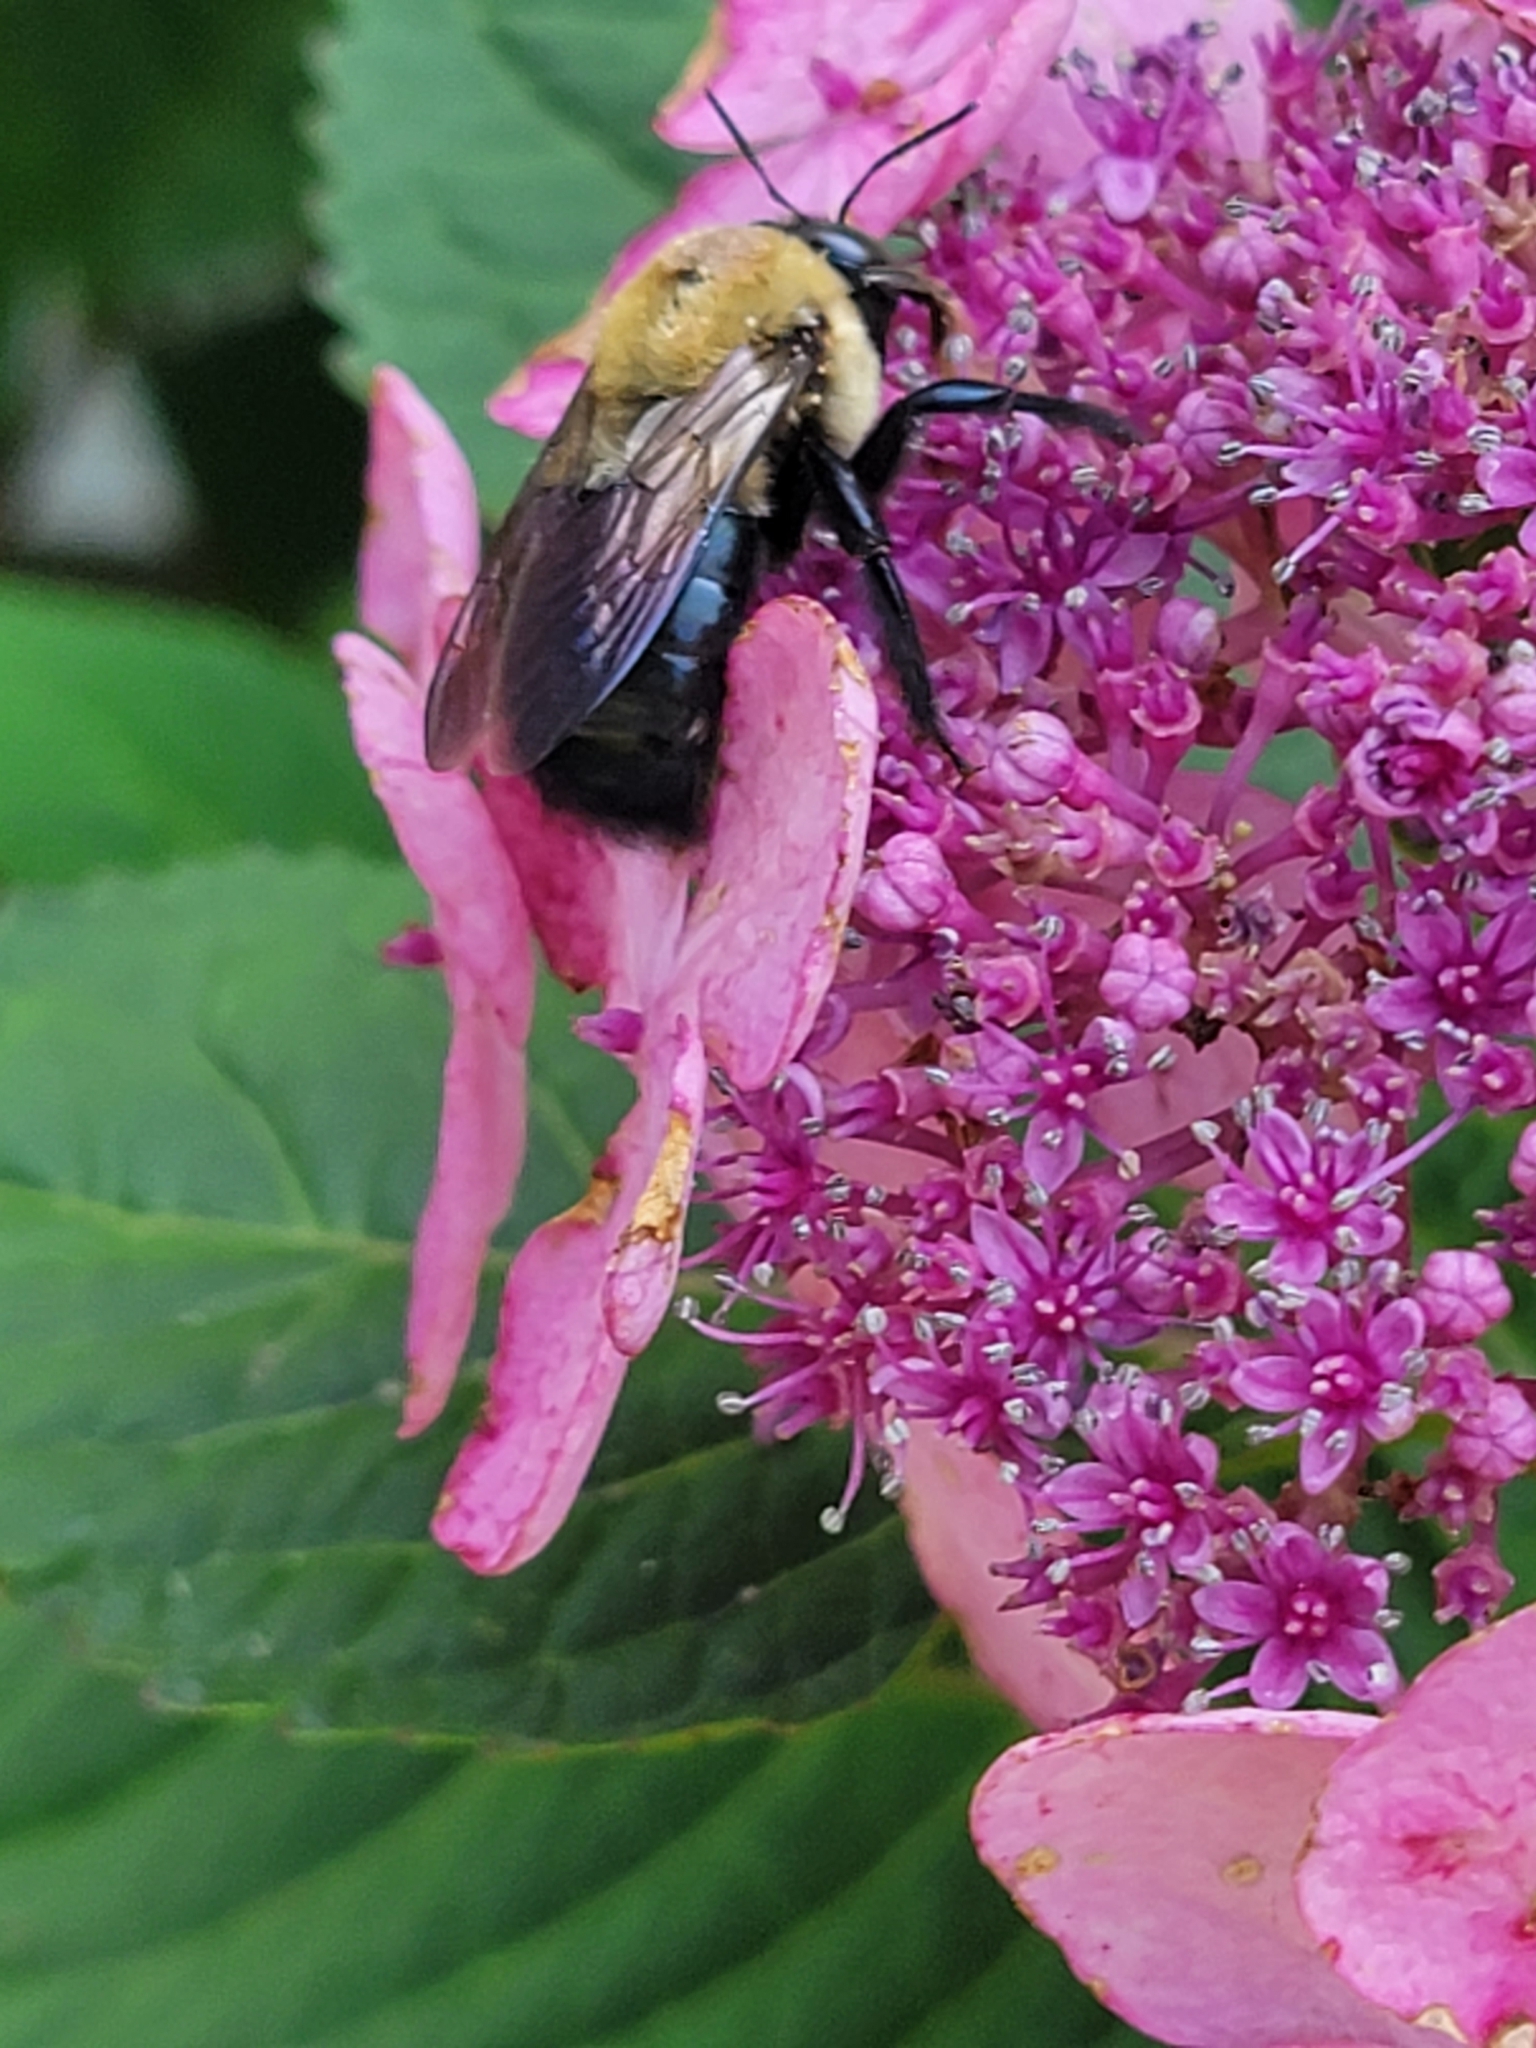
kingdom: Animalia
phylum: Arthropoda
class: Insecta
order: Hymenoptera
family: Apidae
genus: Xylocopa
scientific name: Xylocopa virginica
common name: Carpenter bee
